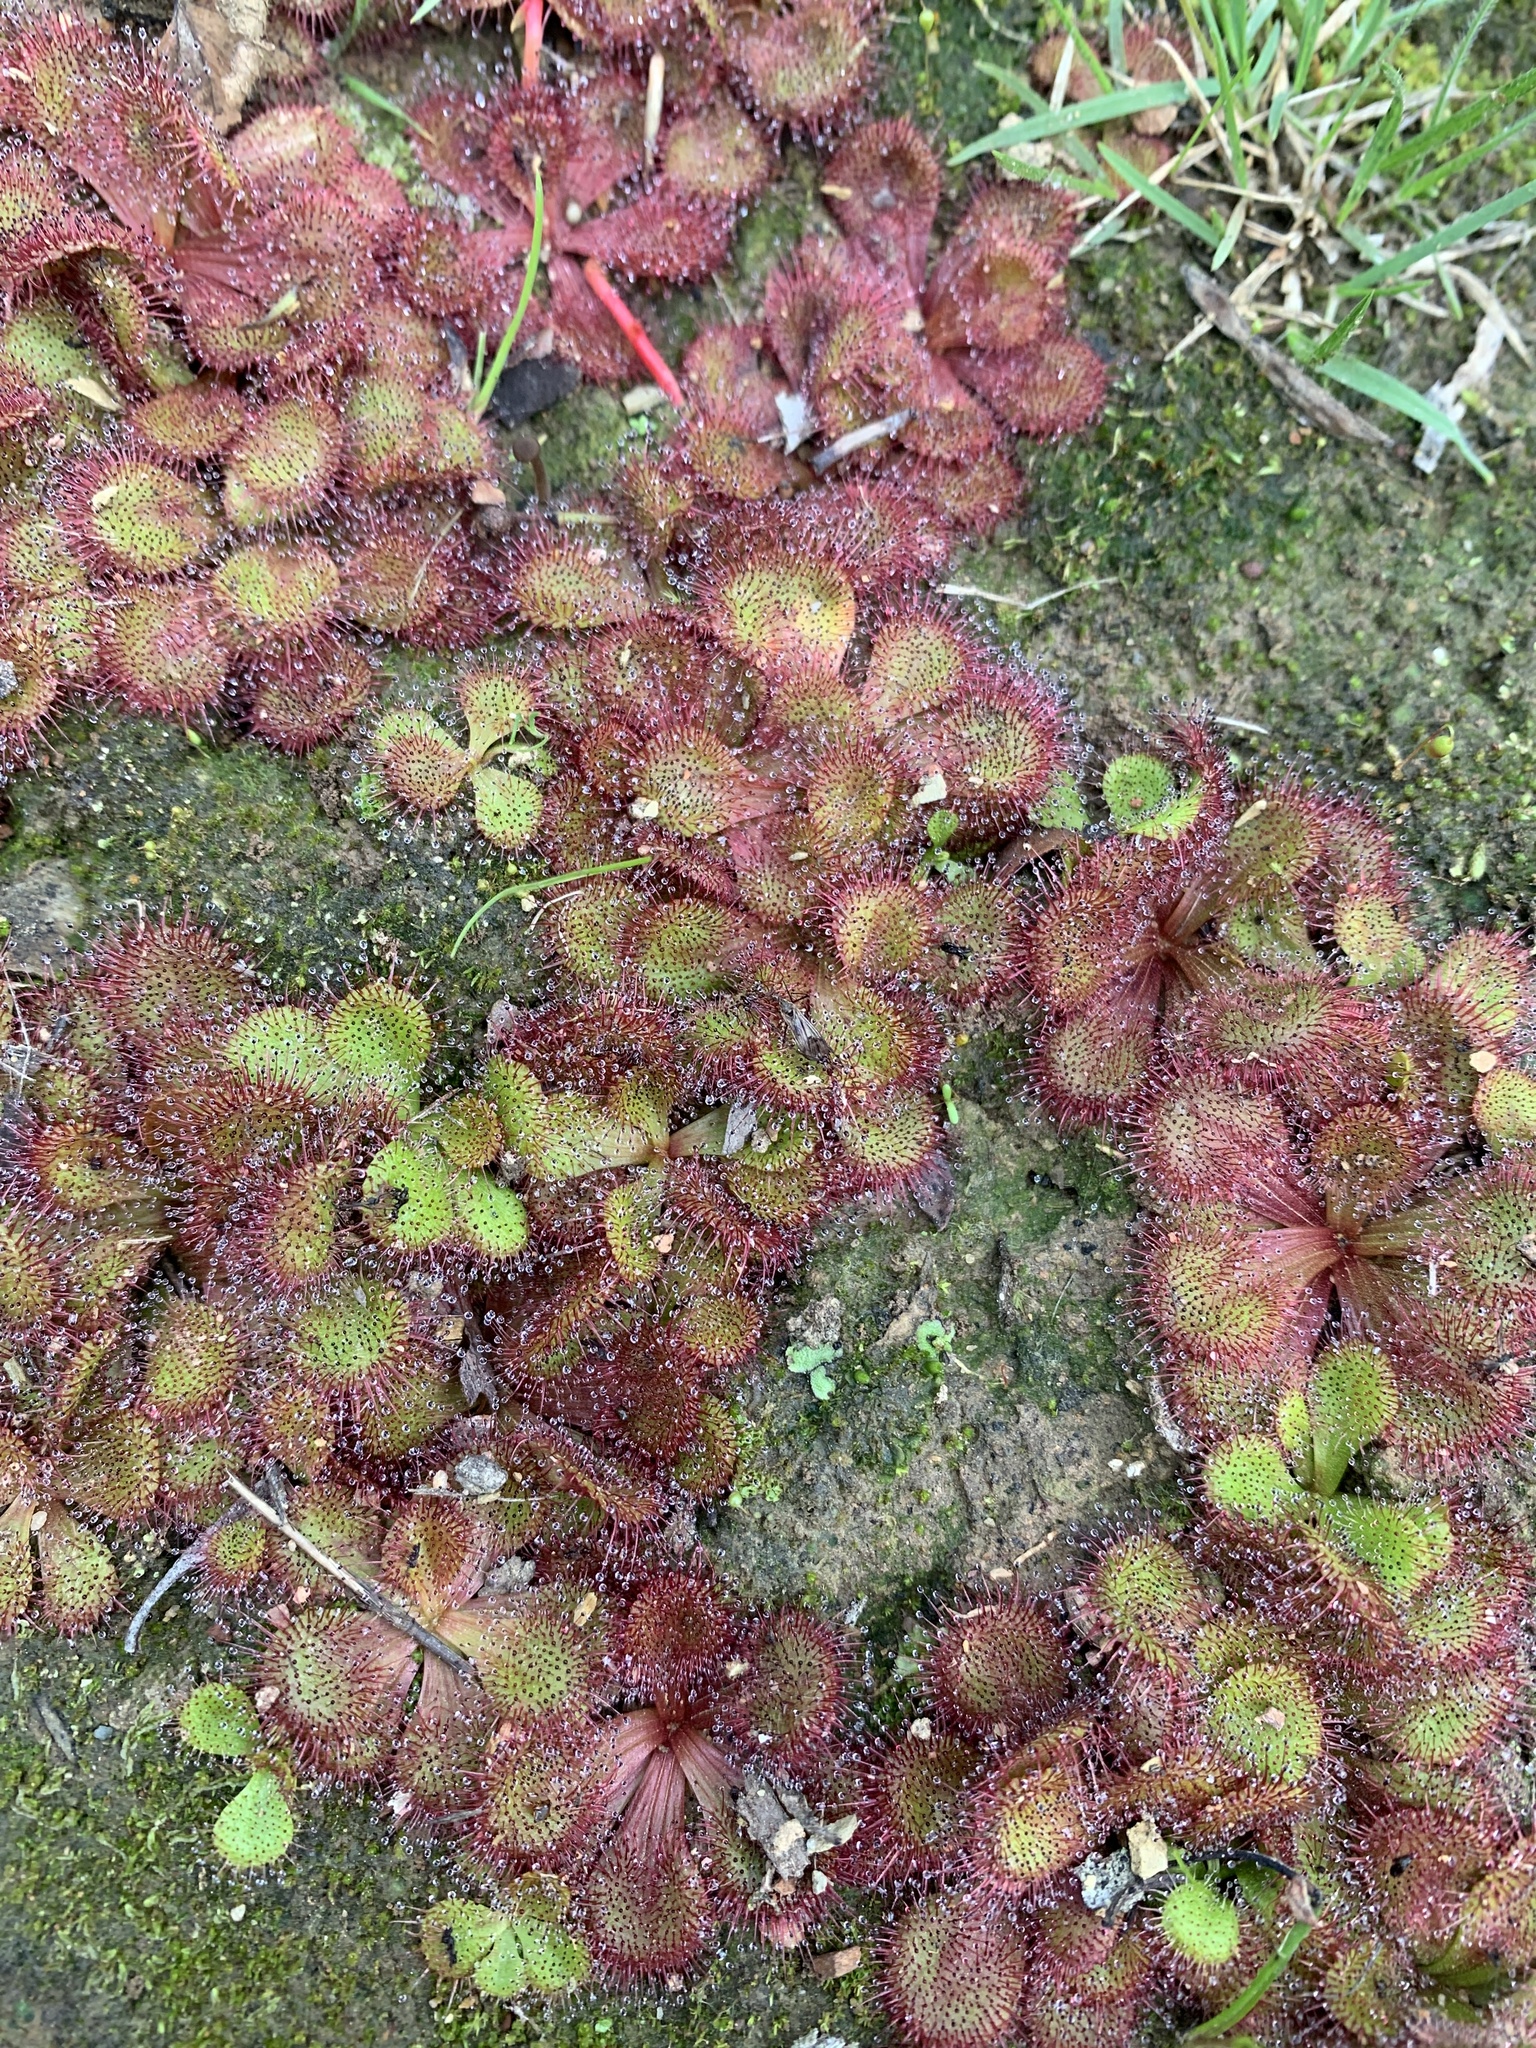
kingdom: Plantae
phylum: Tracheophyta
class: Magnoliopsida
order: Caryophyllales
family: Droseraceae
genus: Drosera
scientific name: Drosera aberrans
